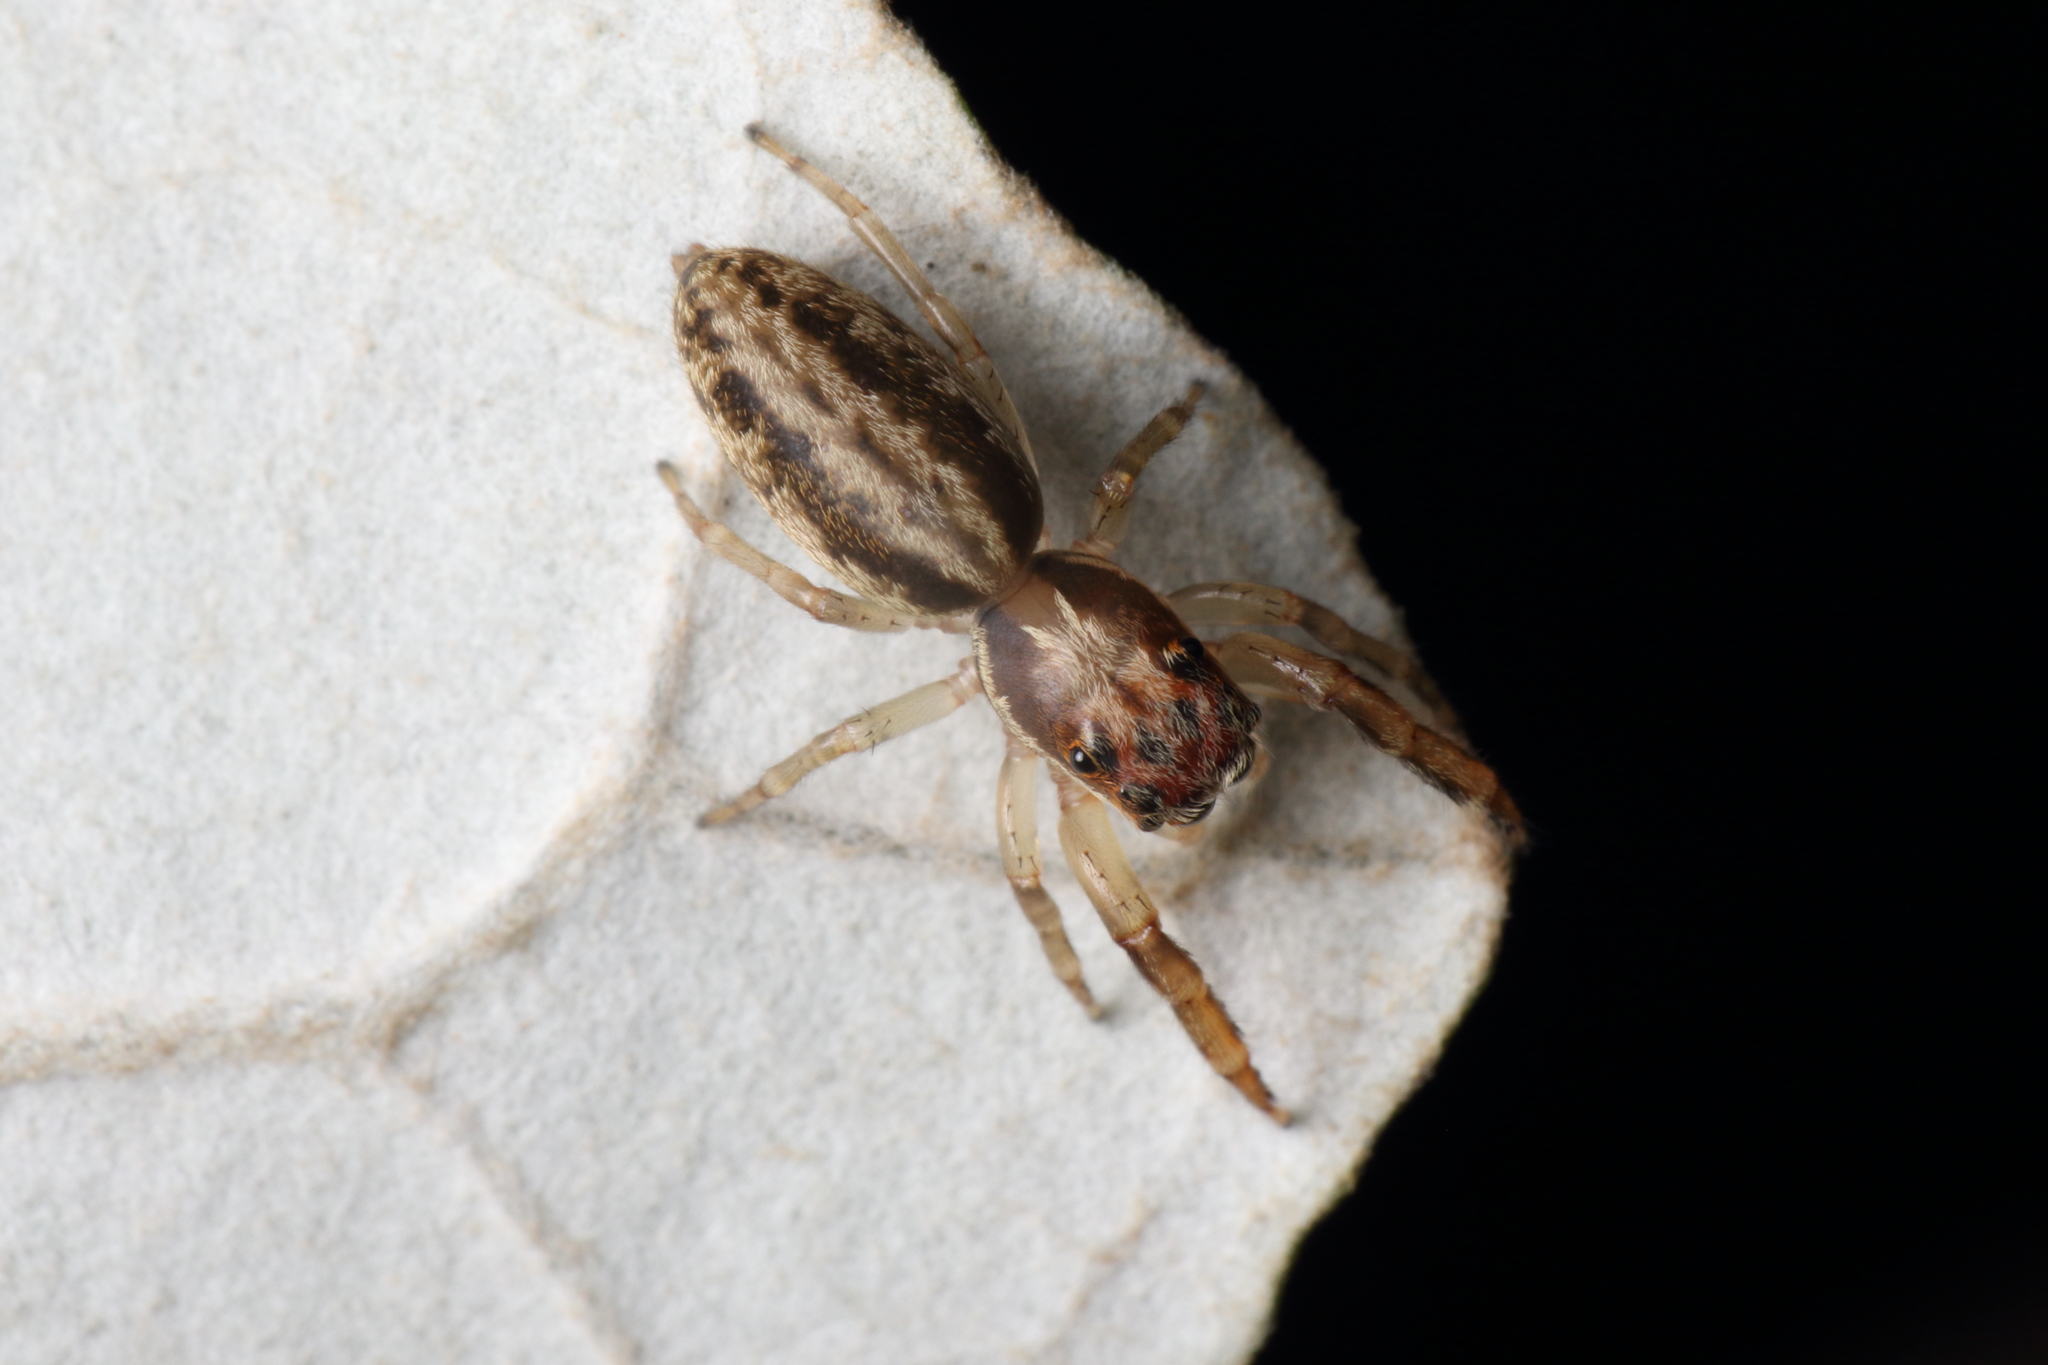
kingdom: Animalia
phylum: Arthropoda
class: Arachnida
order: Araneae
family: Salticidae
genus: Trite
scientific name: Trite mustilina
